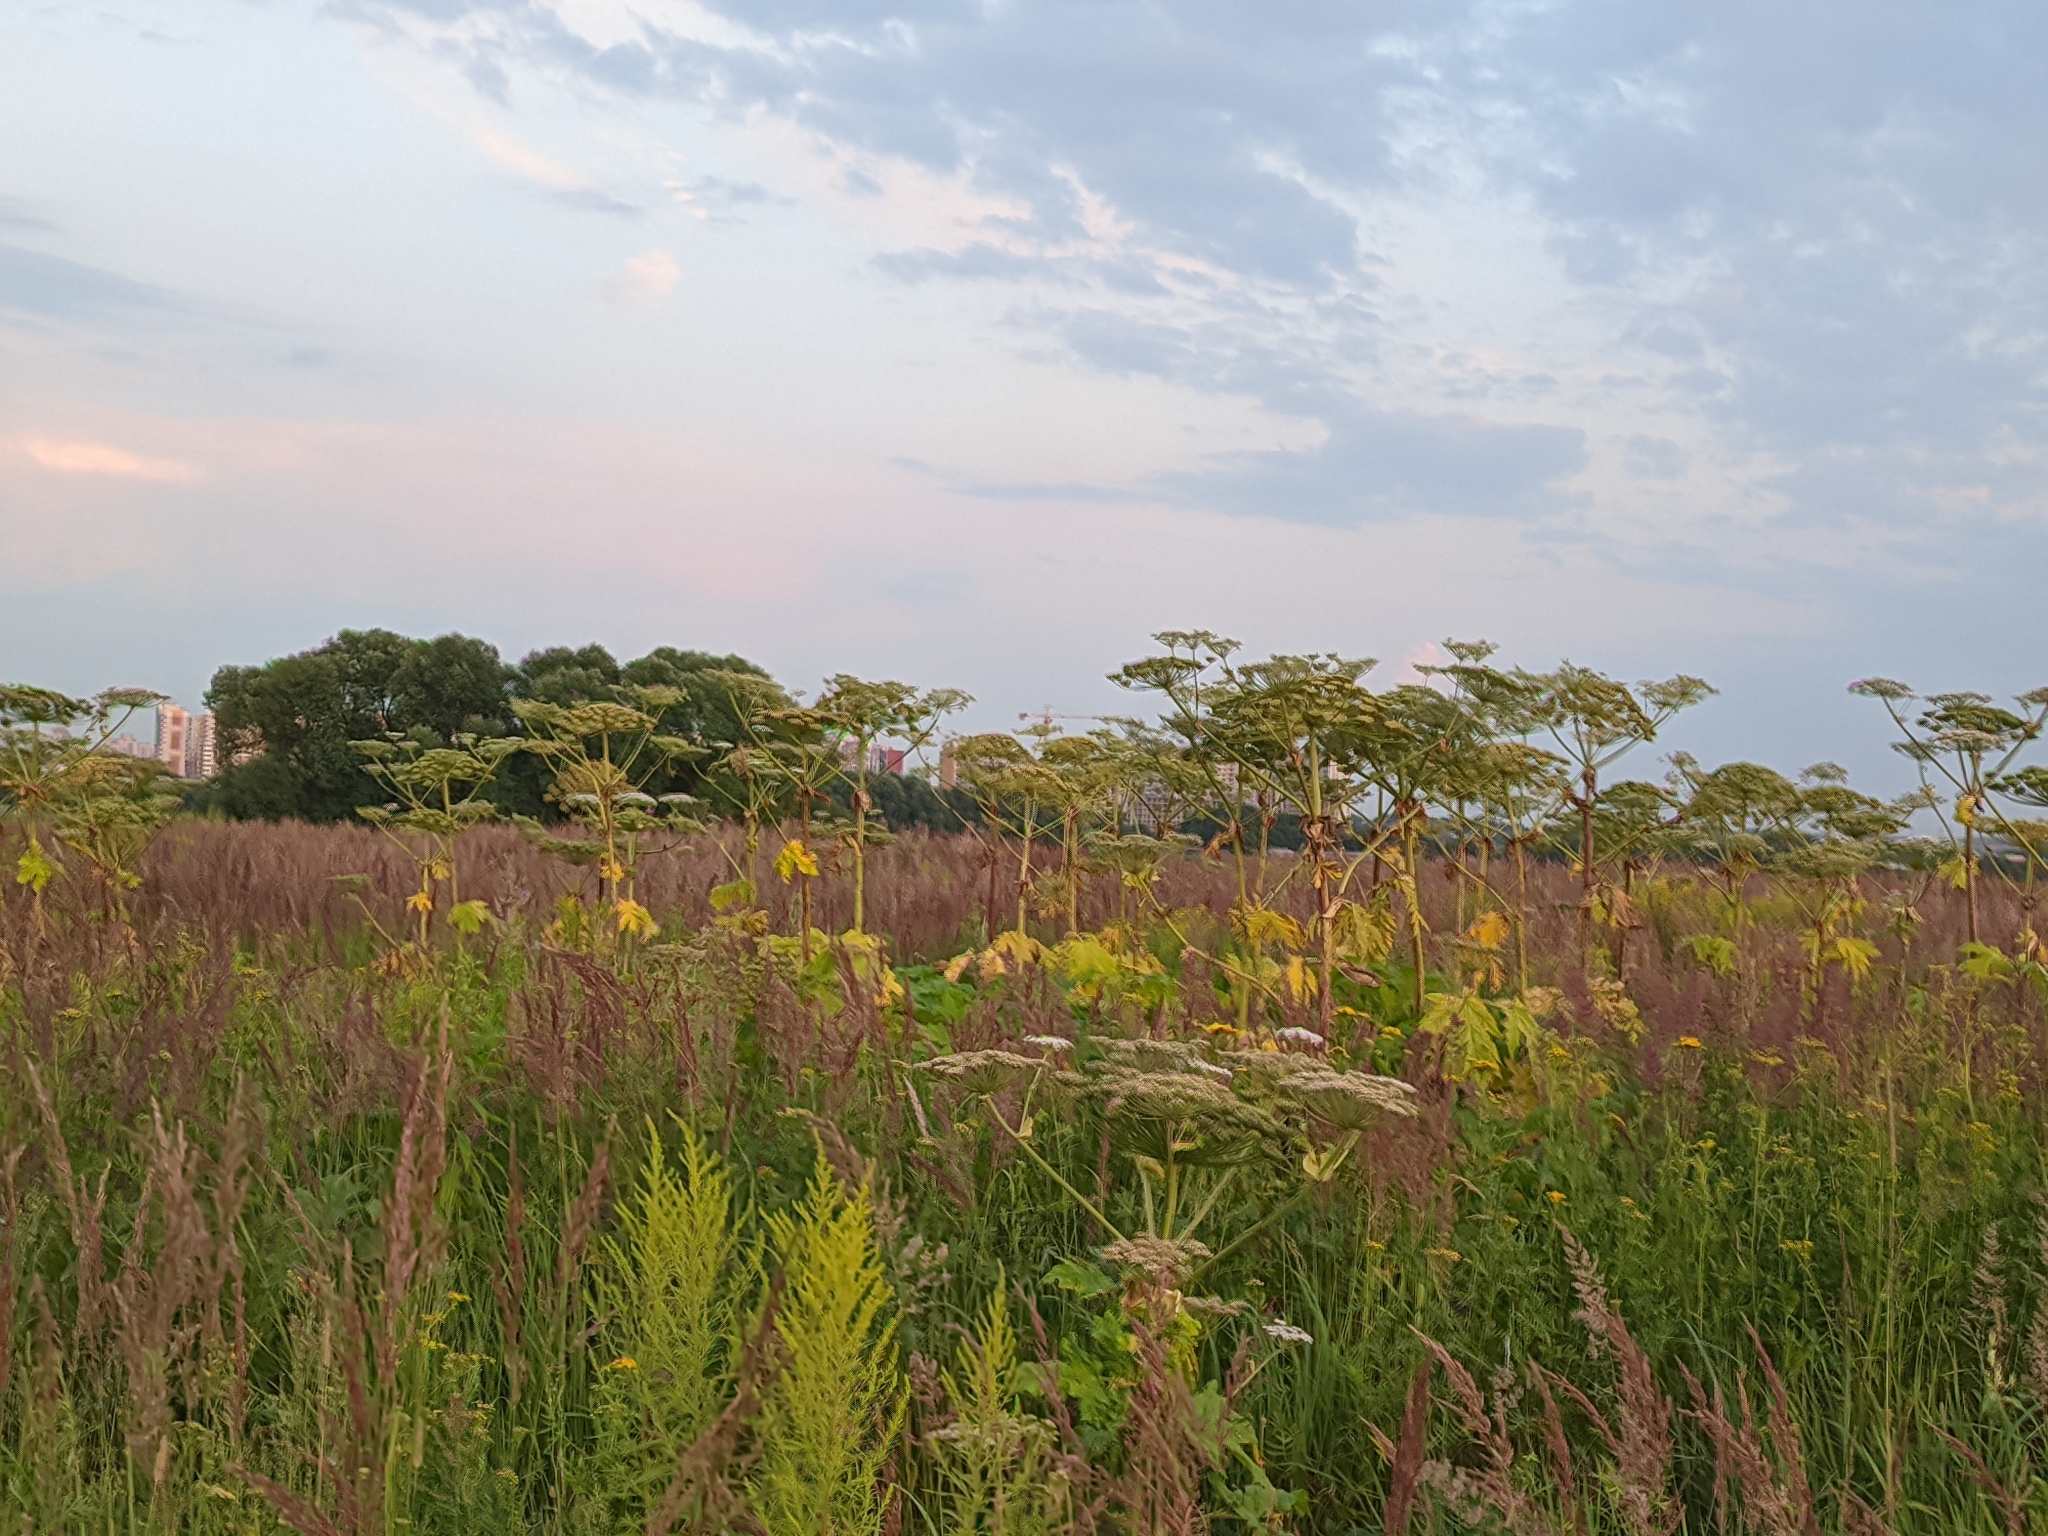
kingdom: Plantae
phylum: Tracheophyta
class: Magnoliopsida
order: Apiales
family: Apiaceae
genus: Heracleum
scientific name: Heracleum sosnowskyi
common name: Sosnowsky's hogweed
